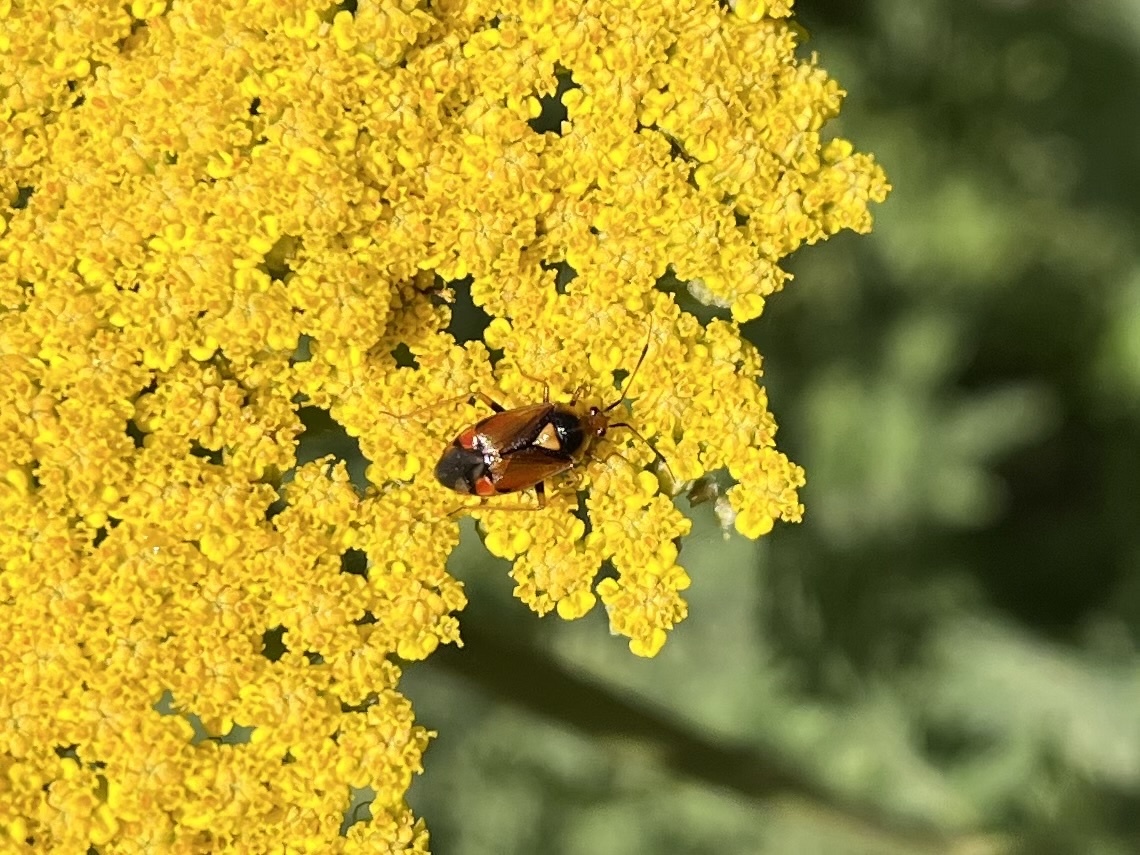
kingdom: Animalia
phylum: Arthropoda
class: Insecta
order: Hemiptera
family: Miridae
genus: Deraeocoris
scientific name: Deraeocoris ruber
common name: Plant bug
